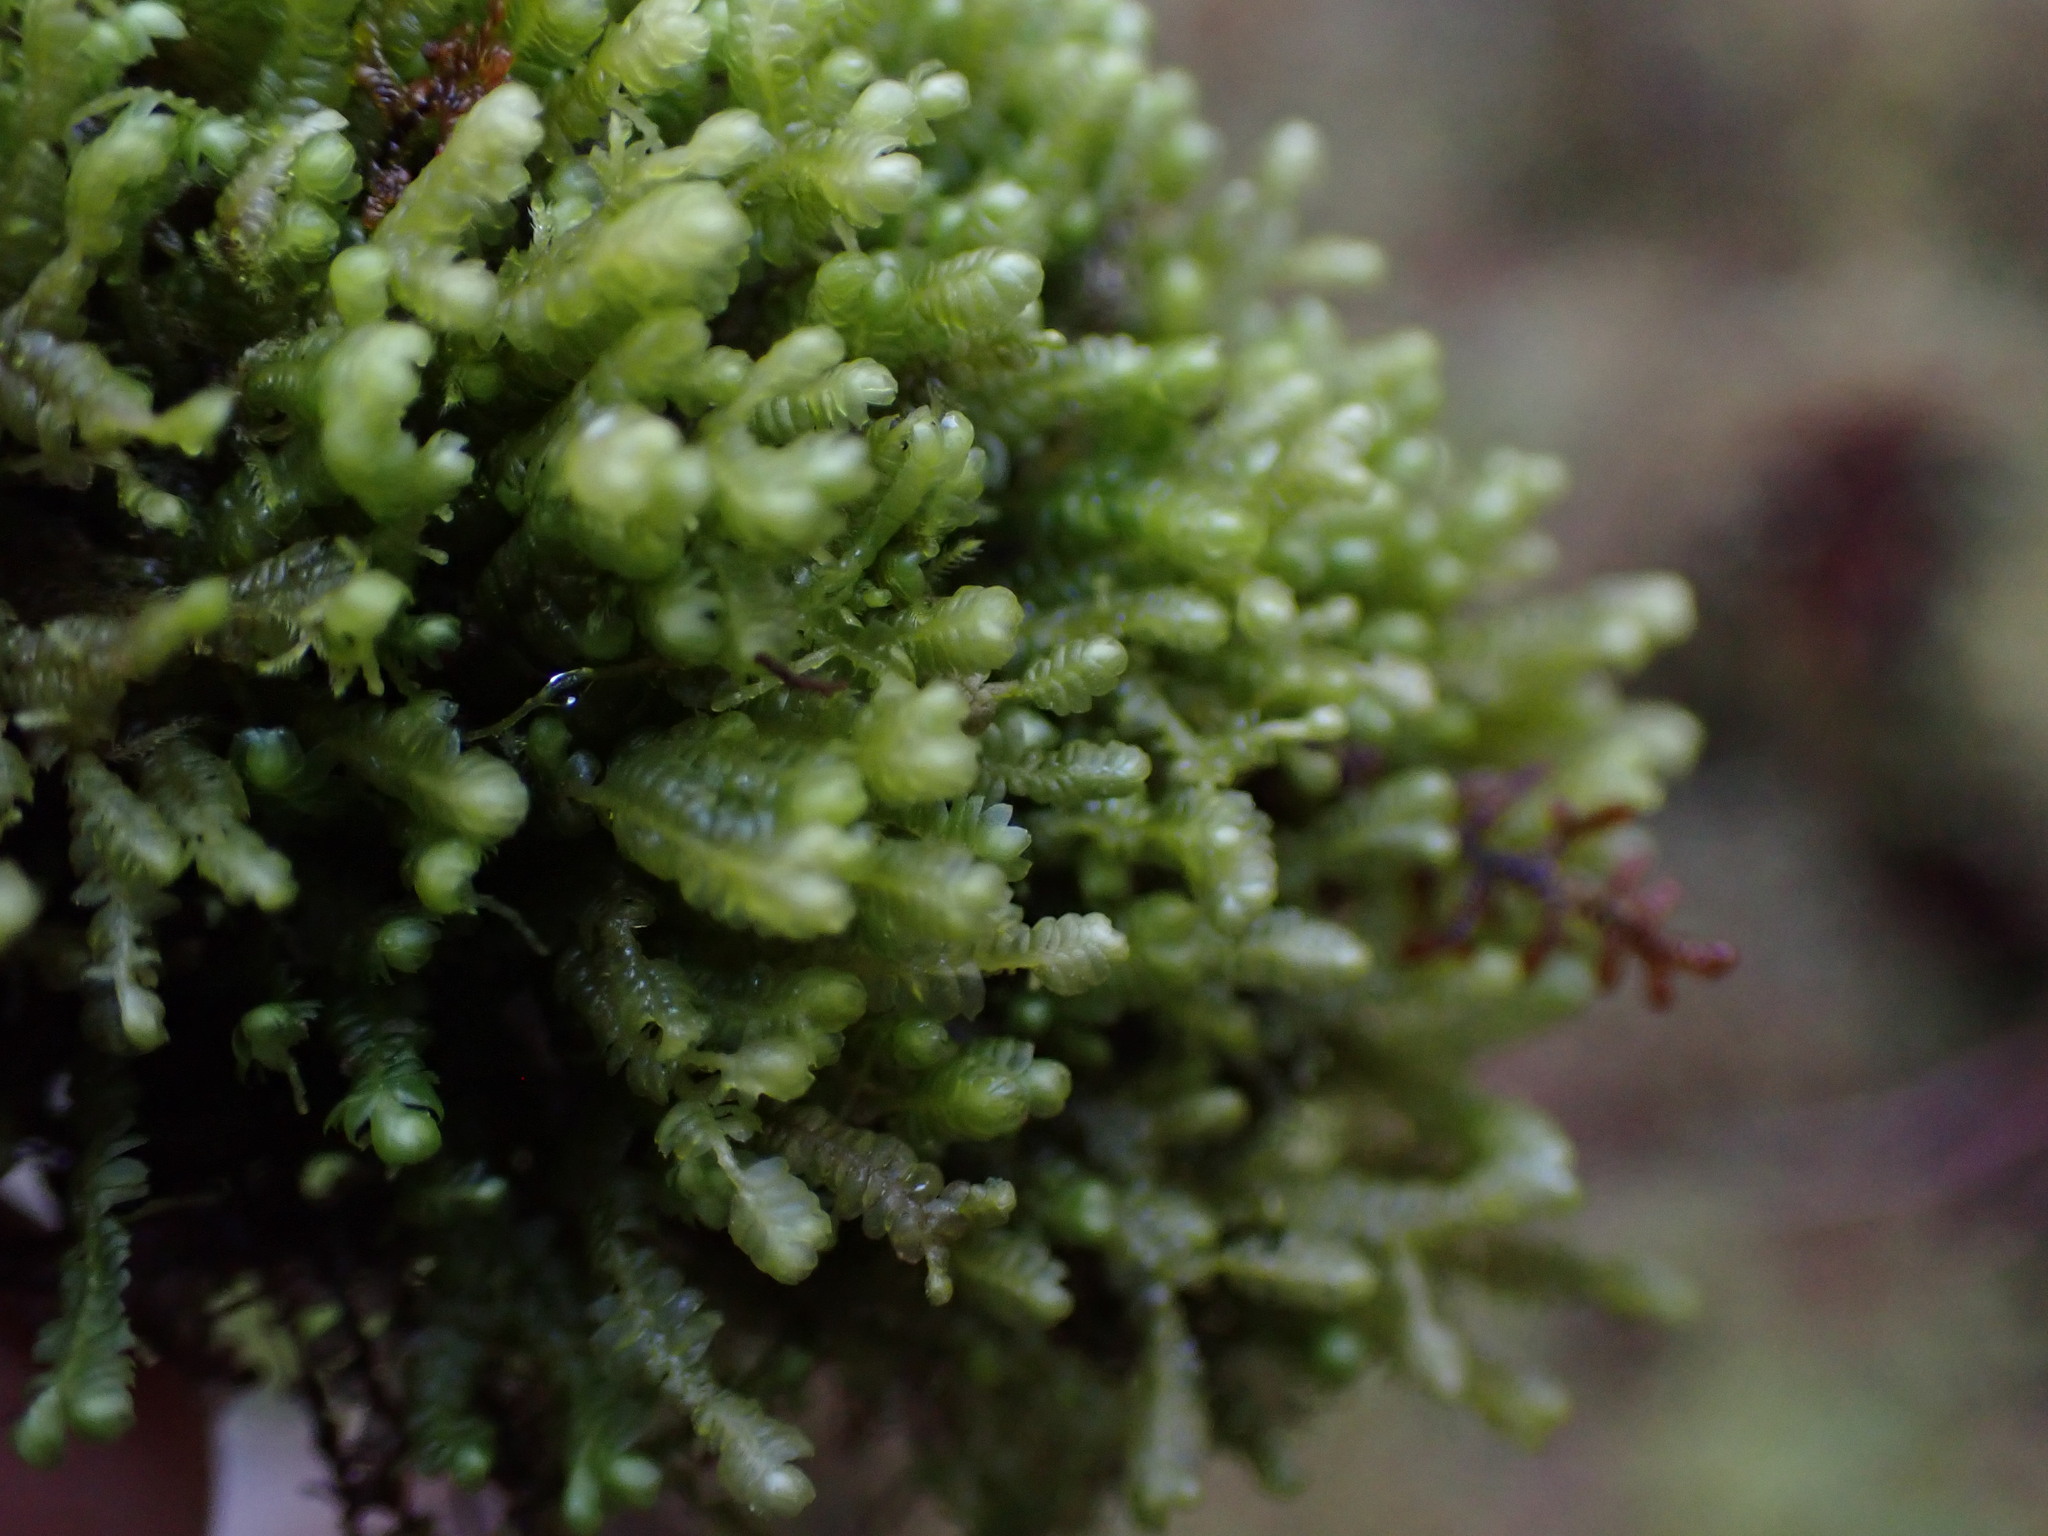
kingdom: Plantae
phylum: Marchantiophyta
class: Jungermanniopsida
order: Jungermanniales
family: Lepidoziaceae
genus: Bazzania
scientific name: Bazzania denudata
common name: Naked whipwort
